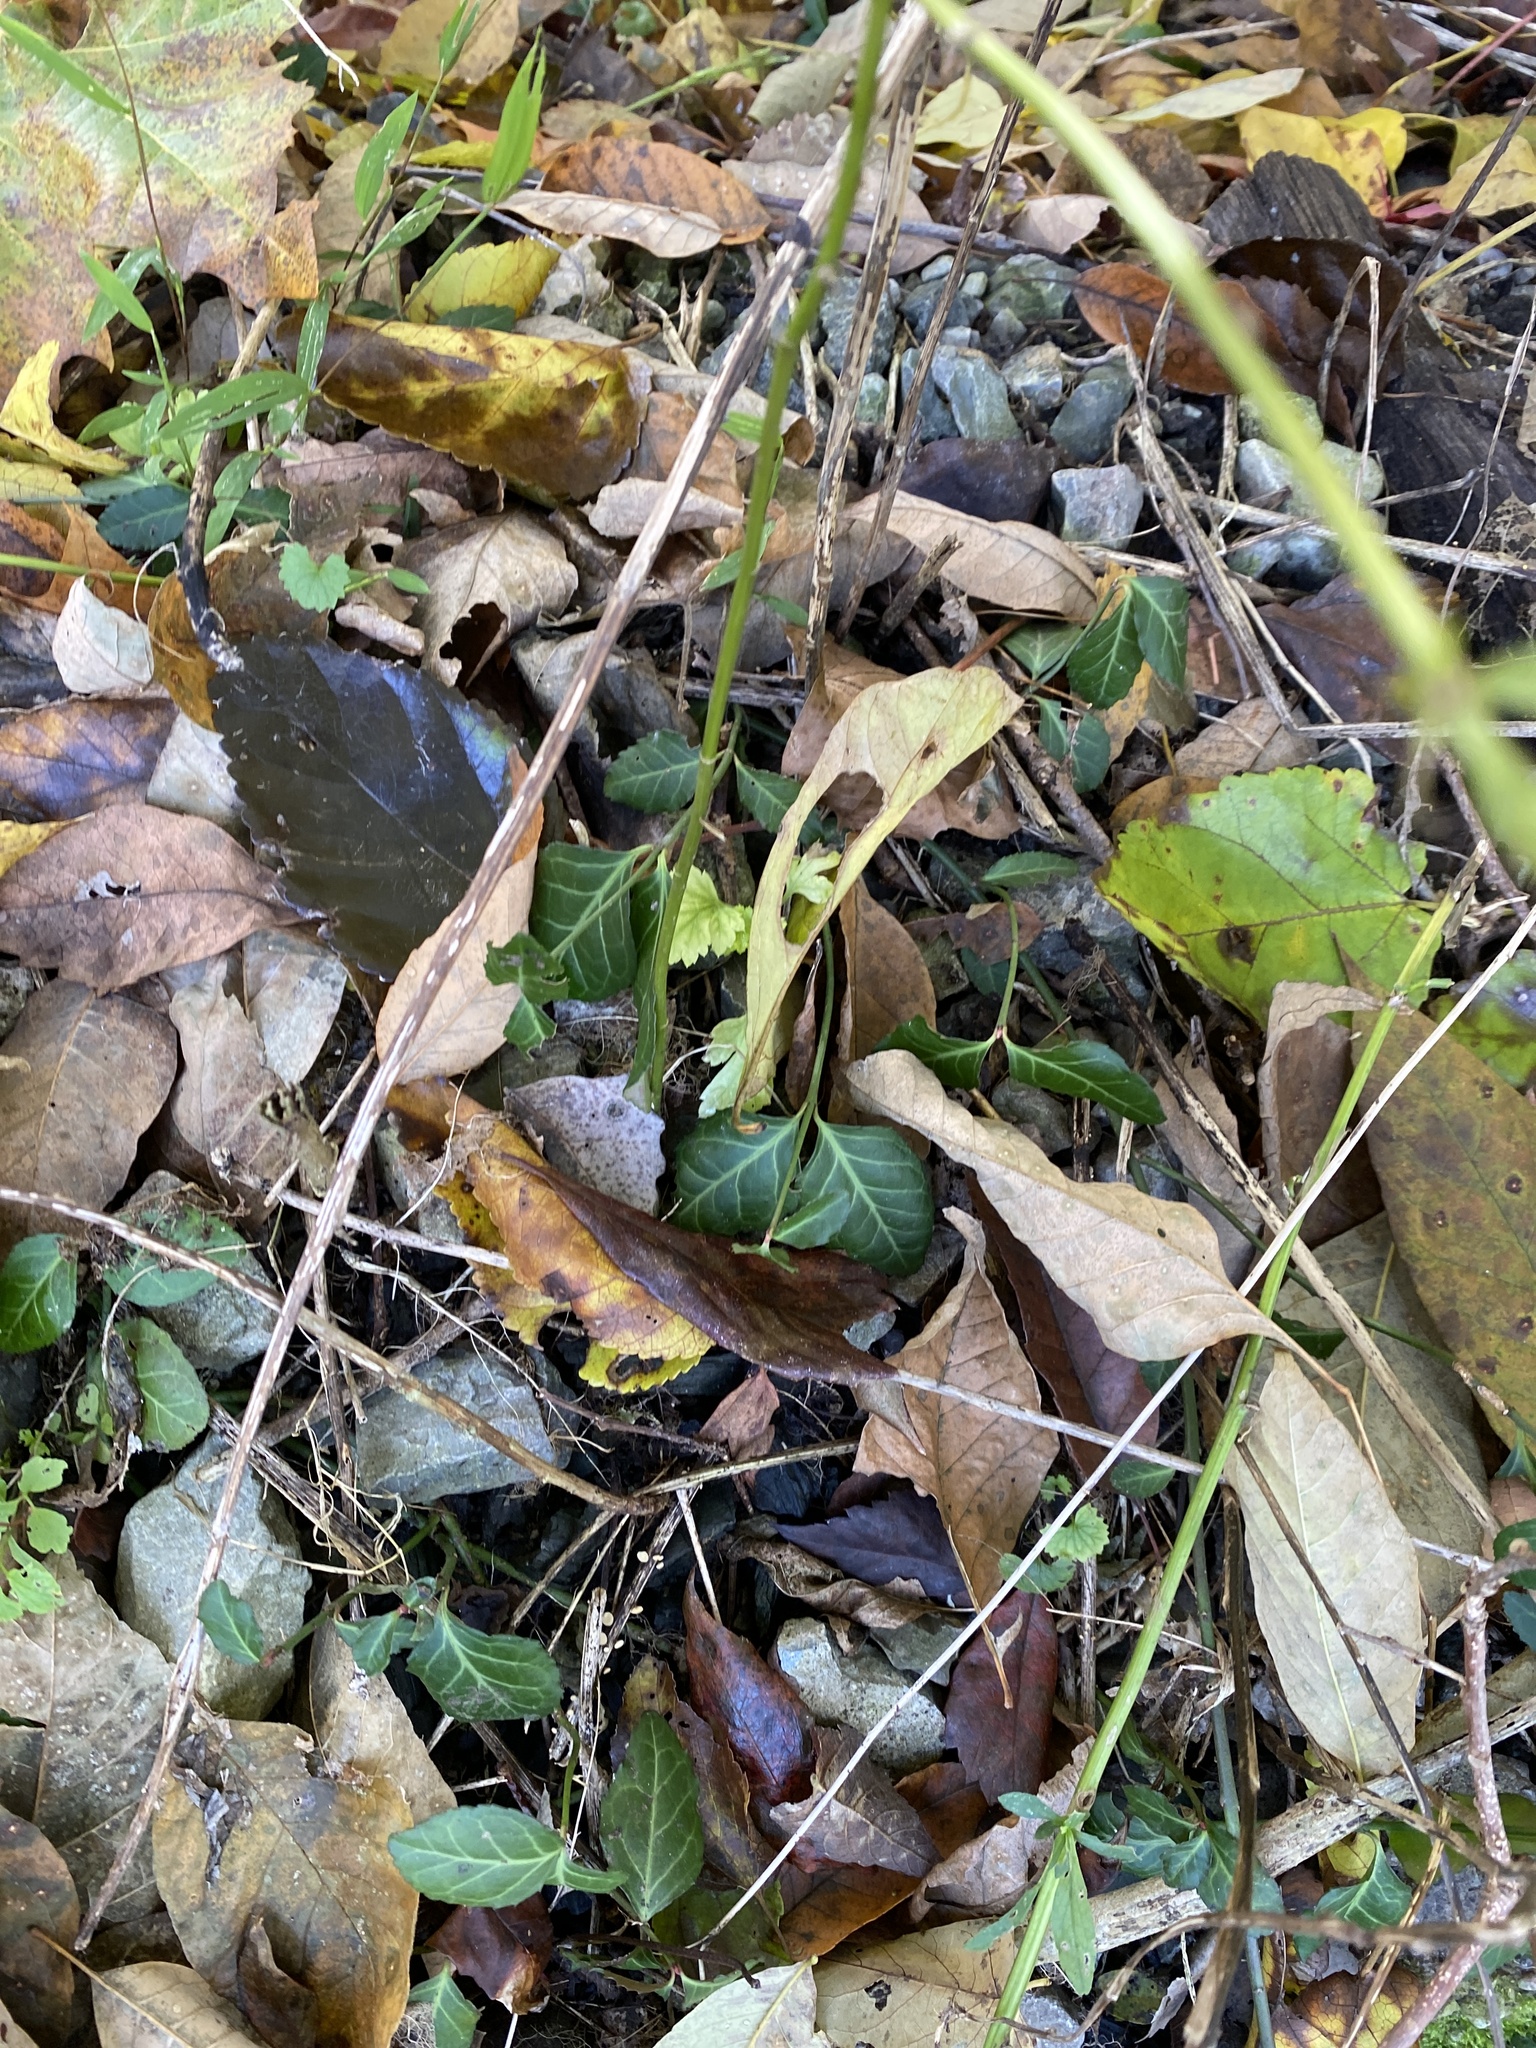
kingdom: Plantae
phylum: Tracheophyta
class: Magnoliopsida
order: Celastrales
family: Celastraceae
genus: Euonymus
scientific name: Euonymus fortunei
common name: Climbing euonymus
